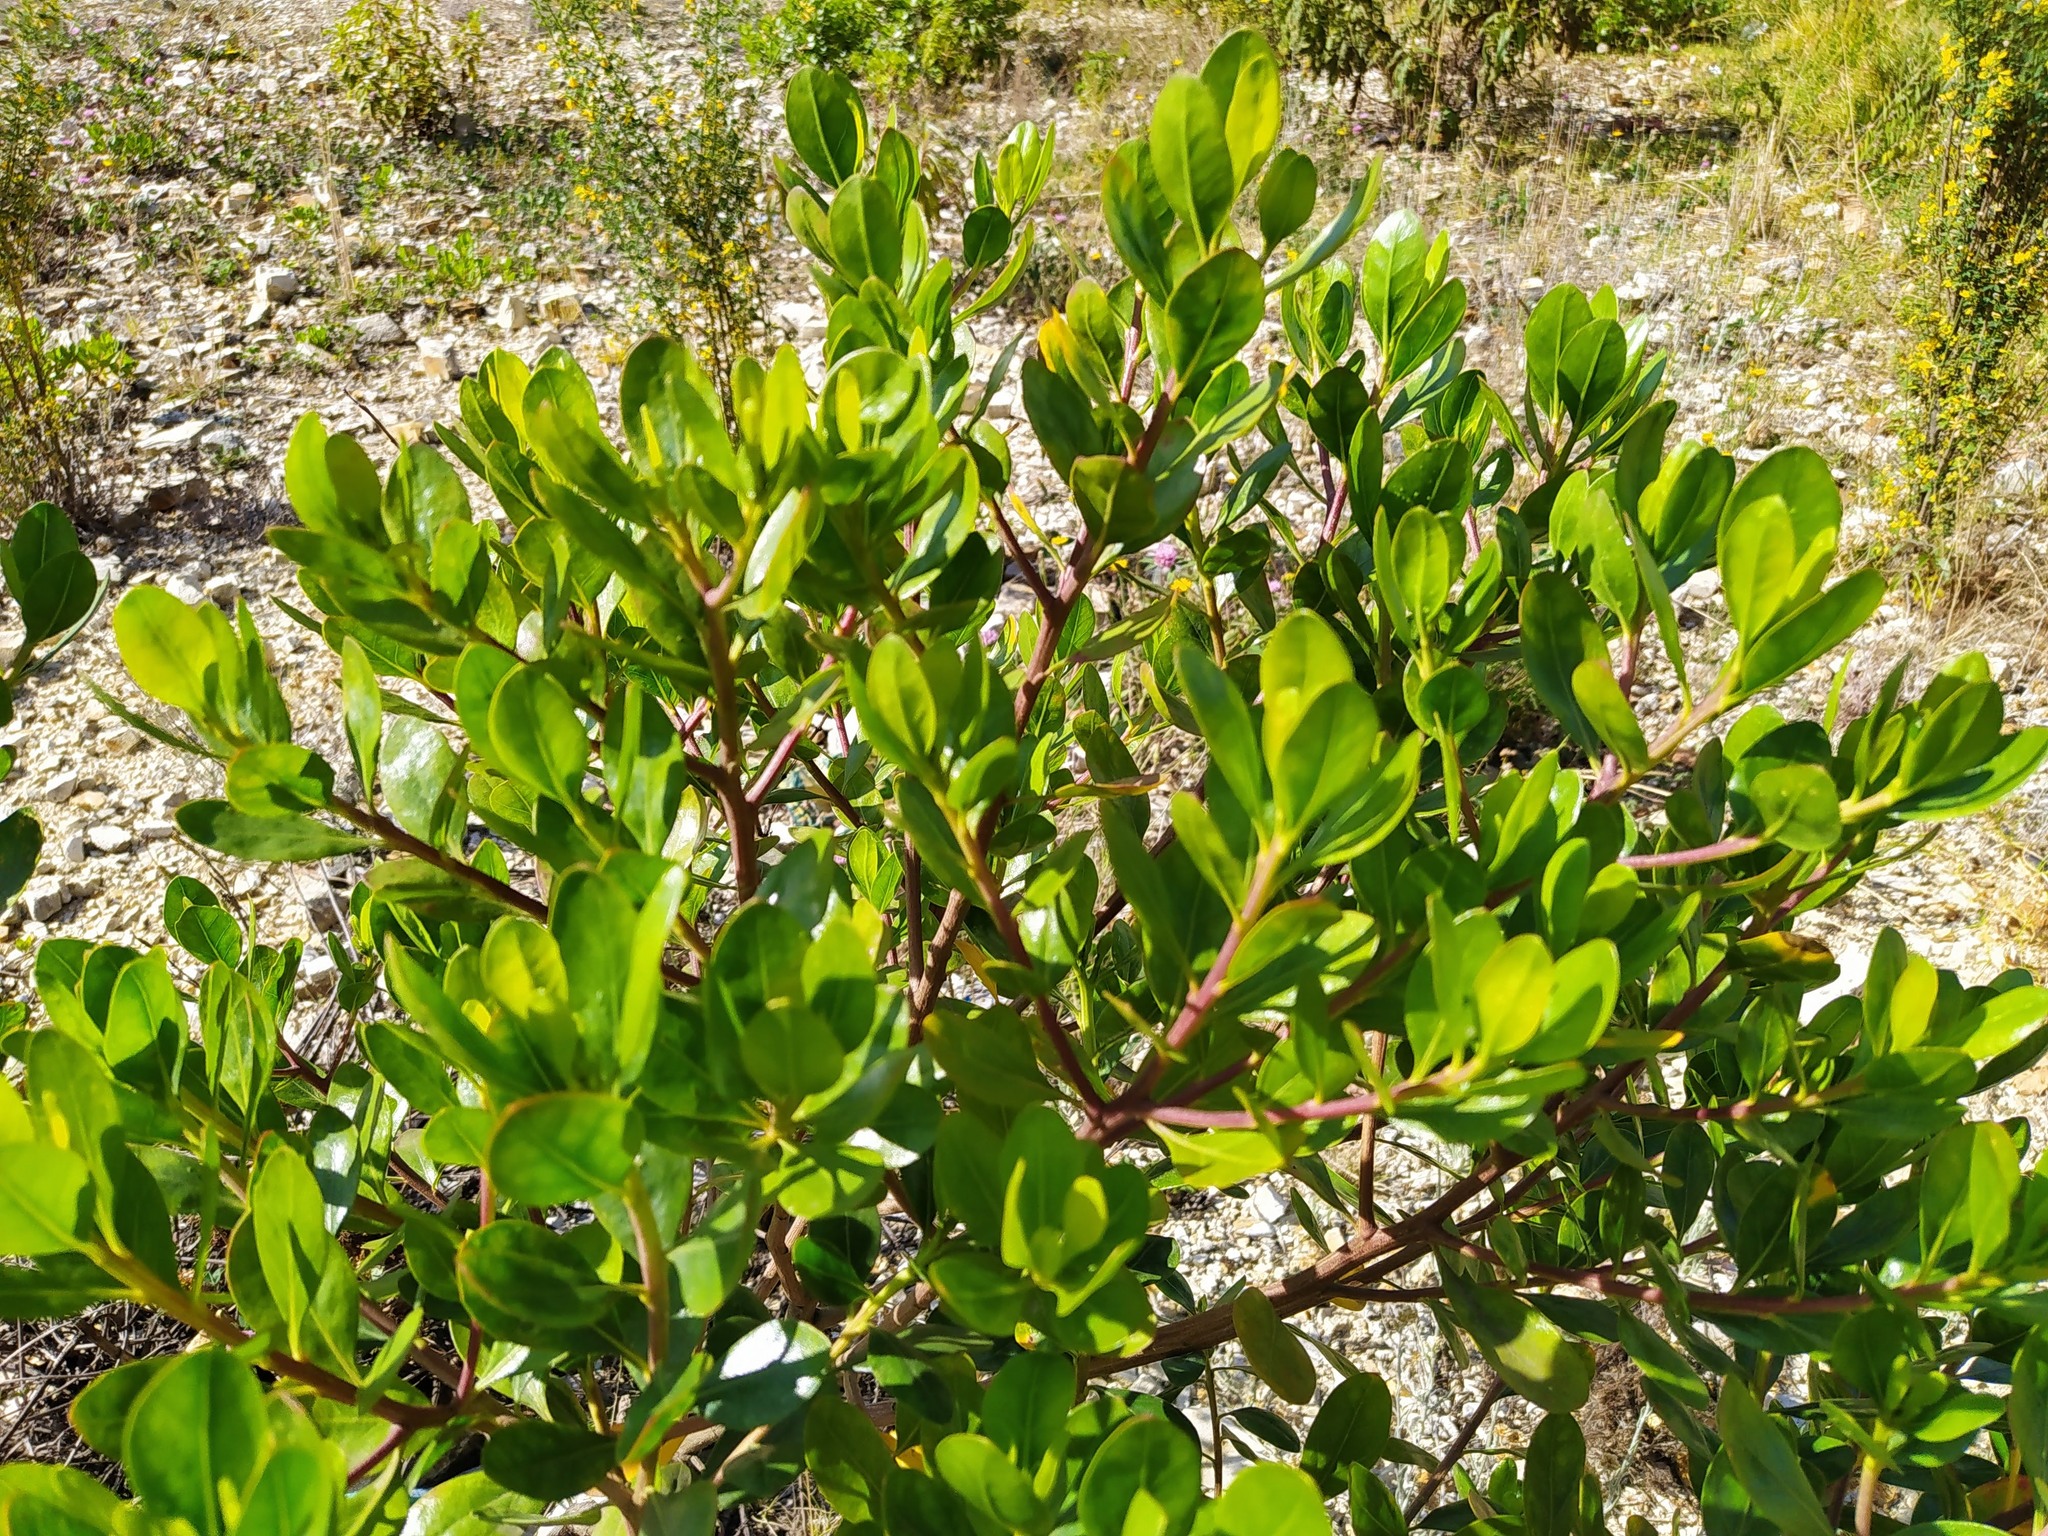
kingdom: Plantae
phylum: Tracheophyta
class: Magnoliopsida
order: Asterales
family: Asteraceae
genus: Baccharis
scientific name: Baccharis macrantha
